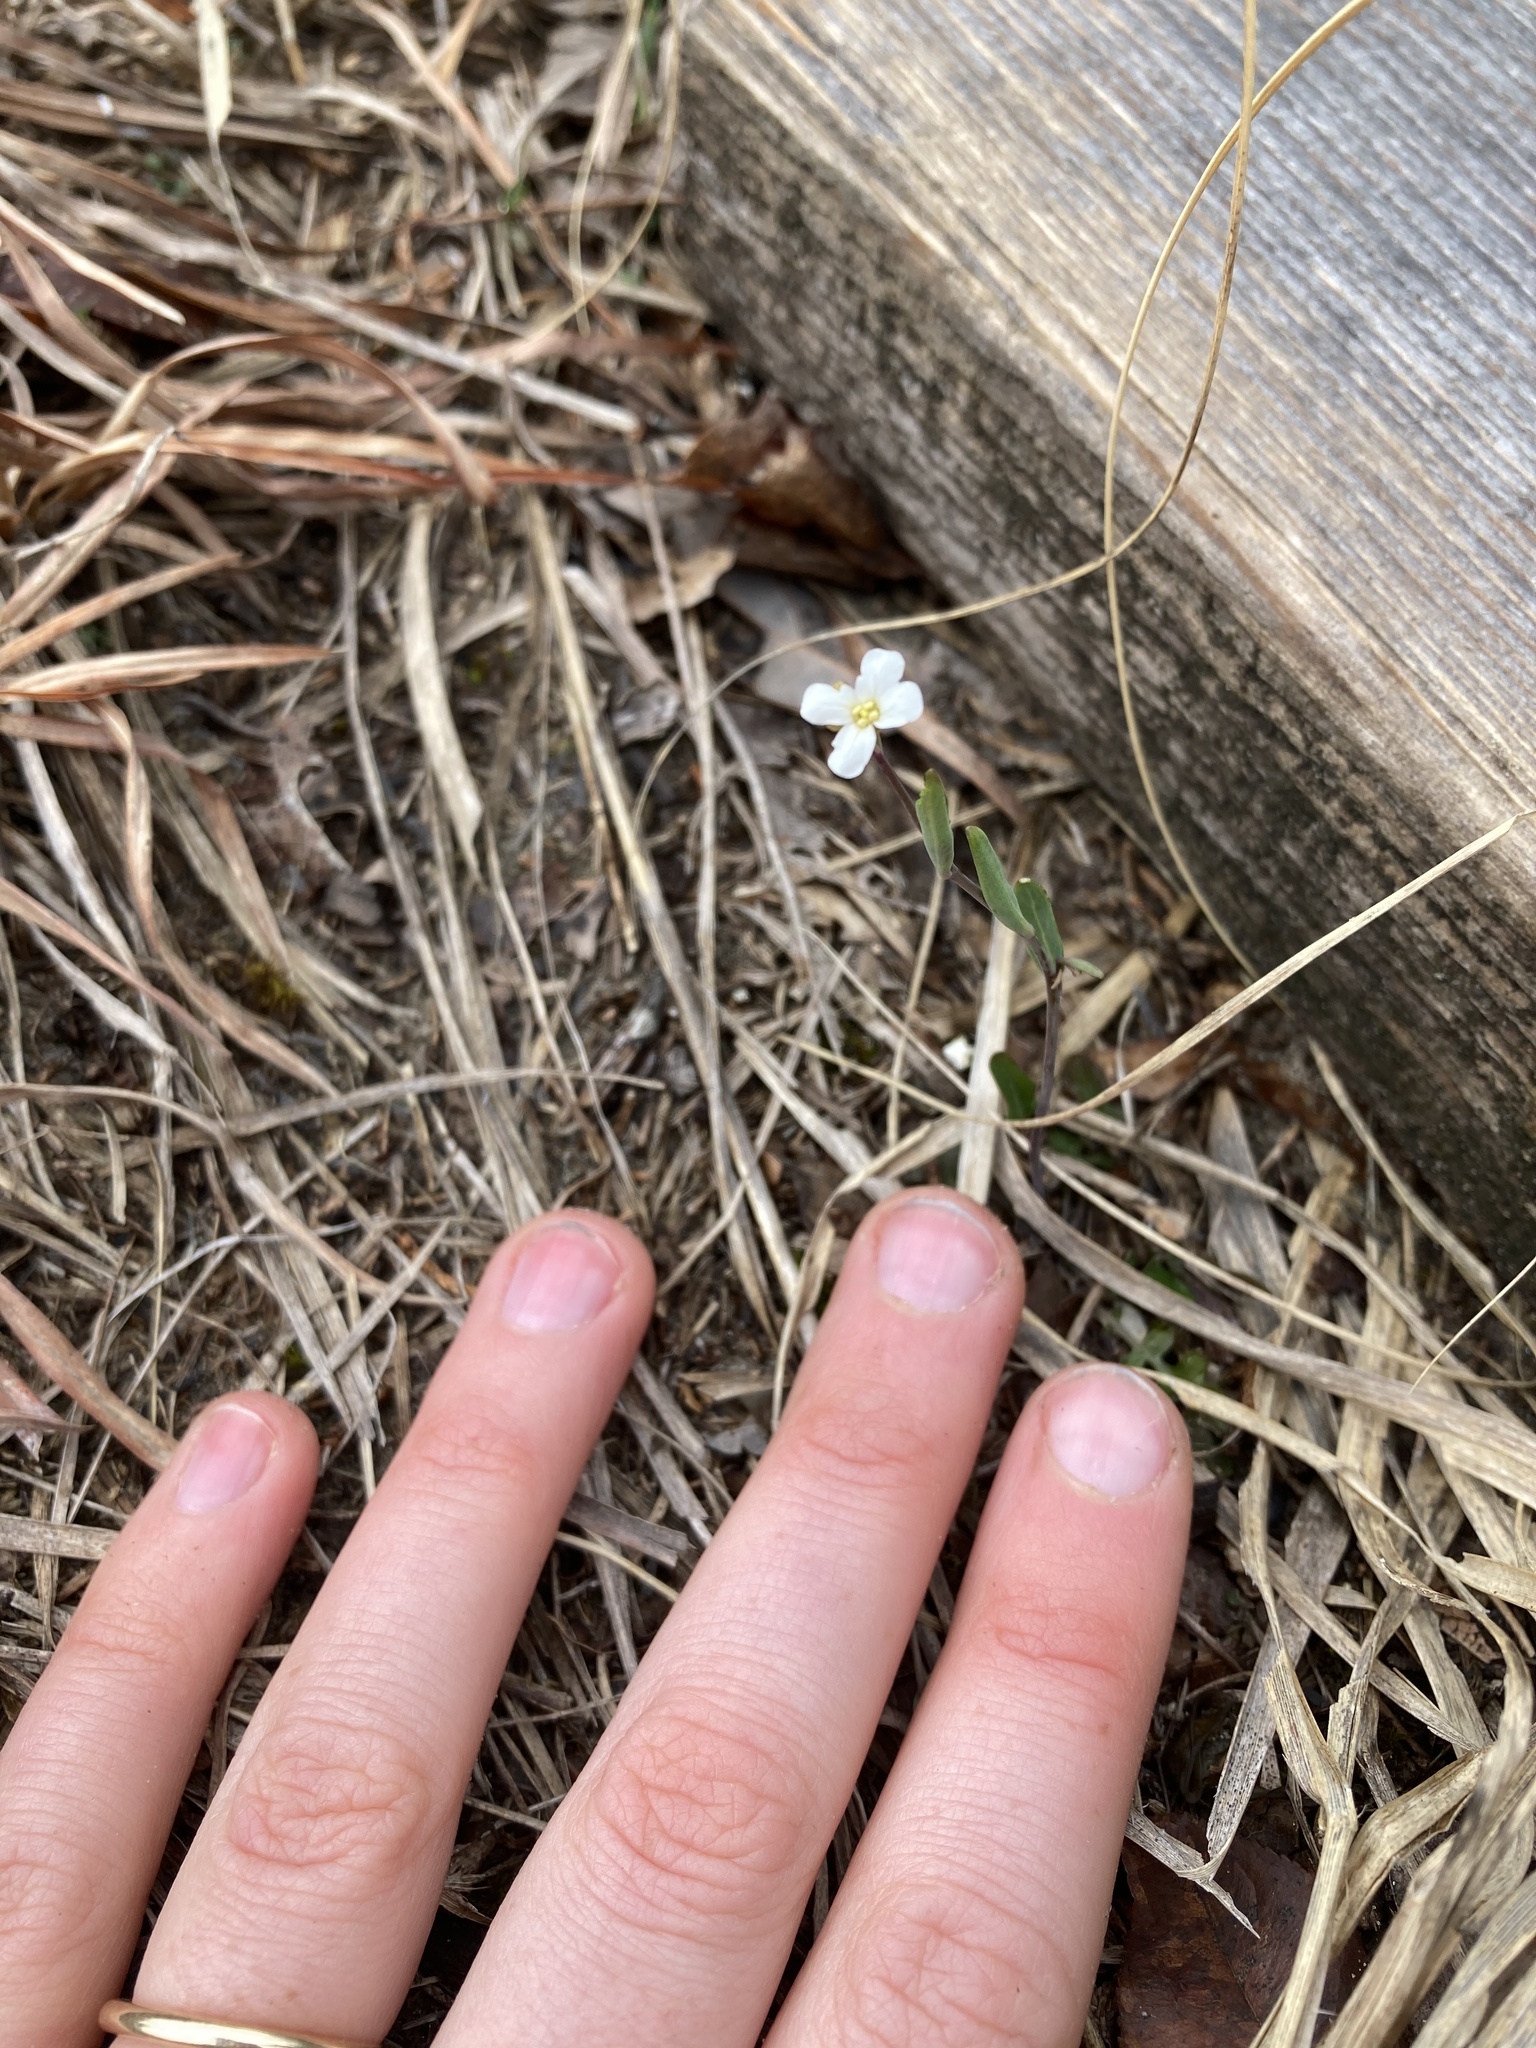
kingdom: Plantae
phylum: Tracheophyta
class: Magnoliopsida
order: Brassicales
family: Brassicaceae
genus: Arabidopsis
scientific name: Arabidopsis lyrata
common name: Lyrate rockcress
